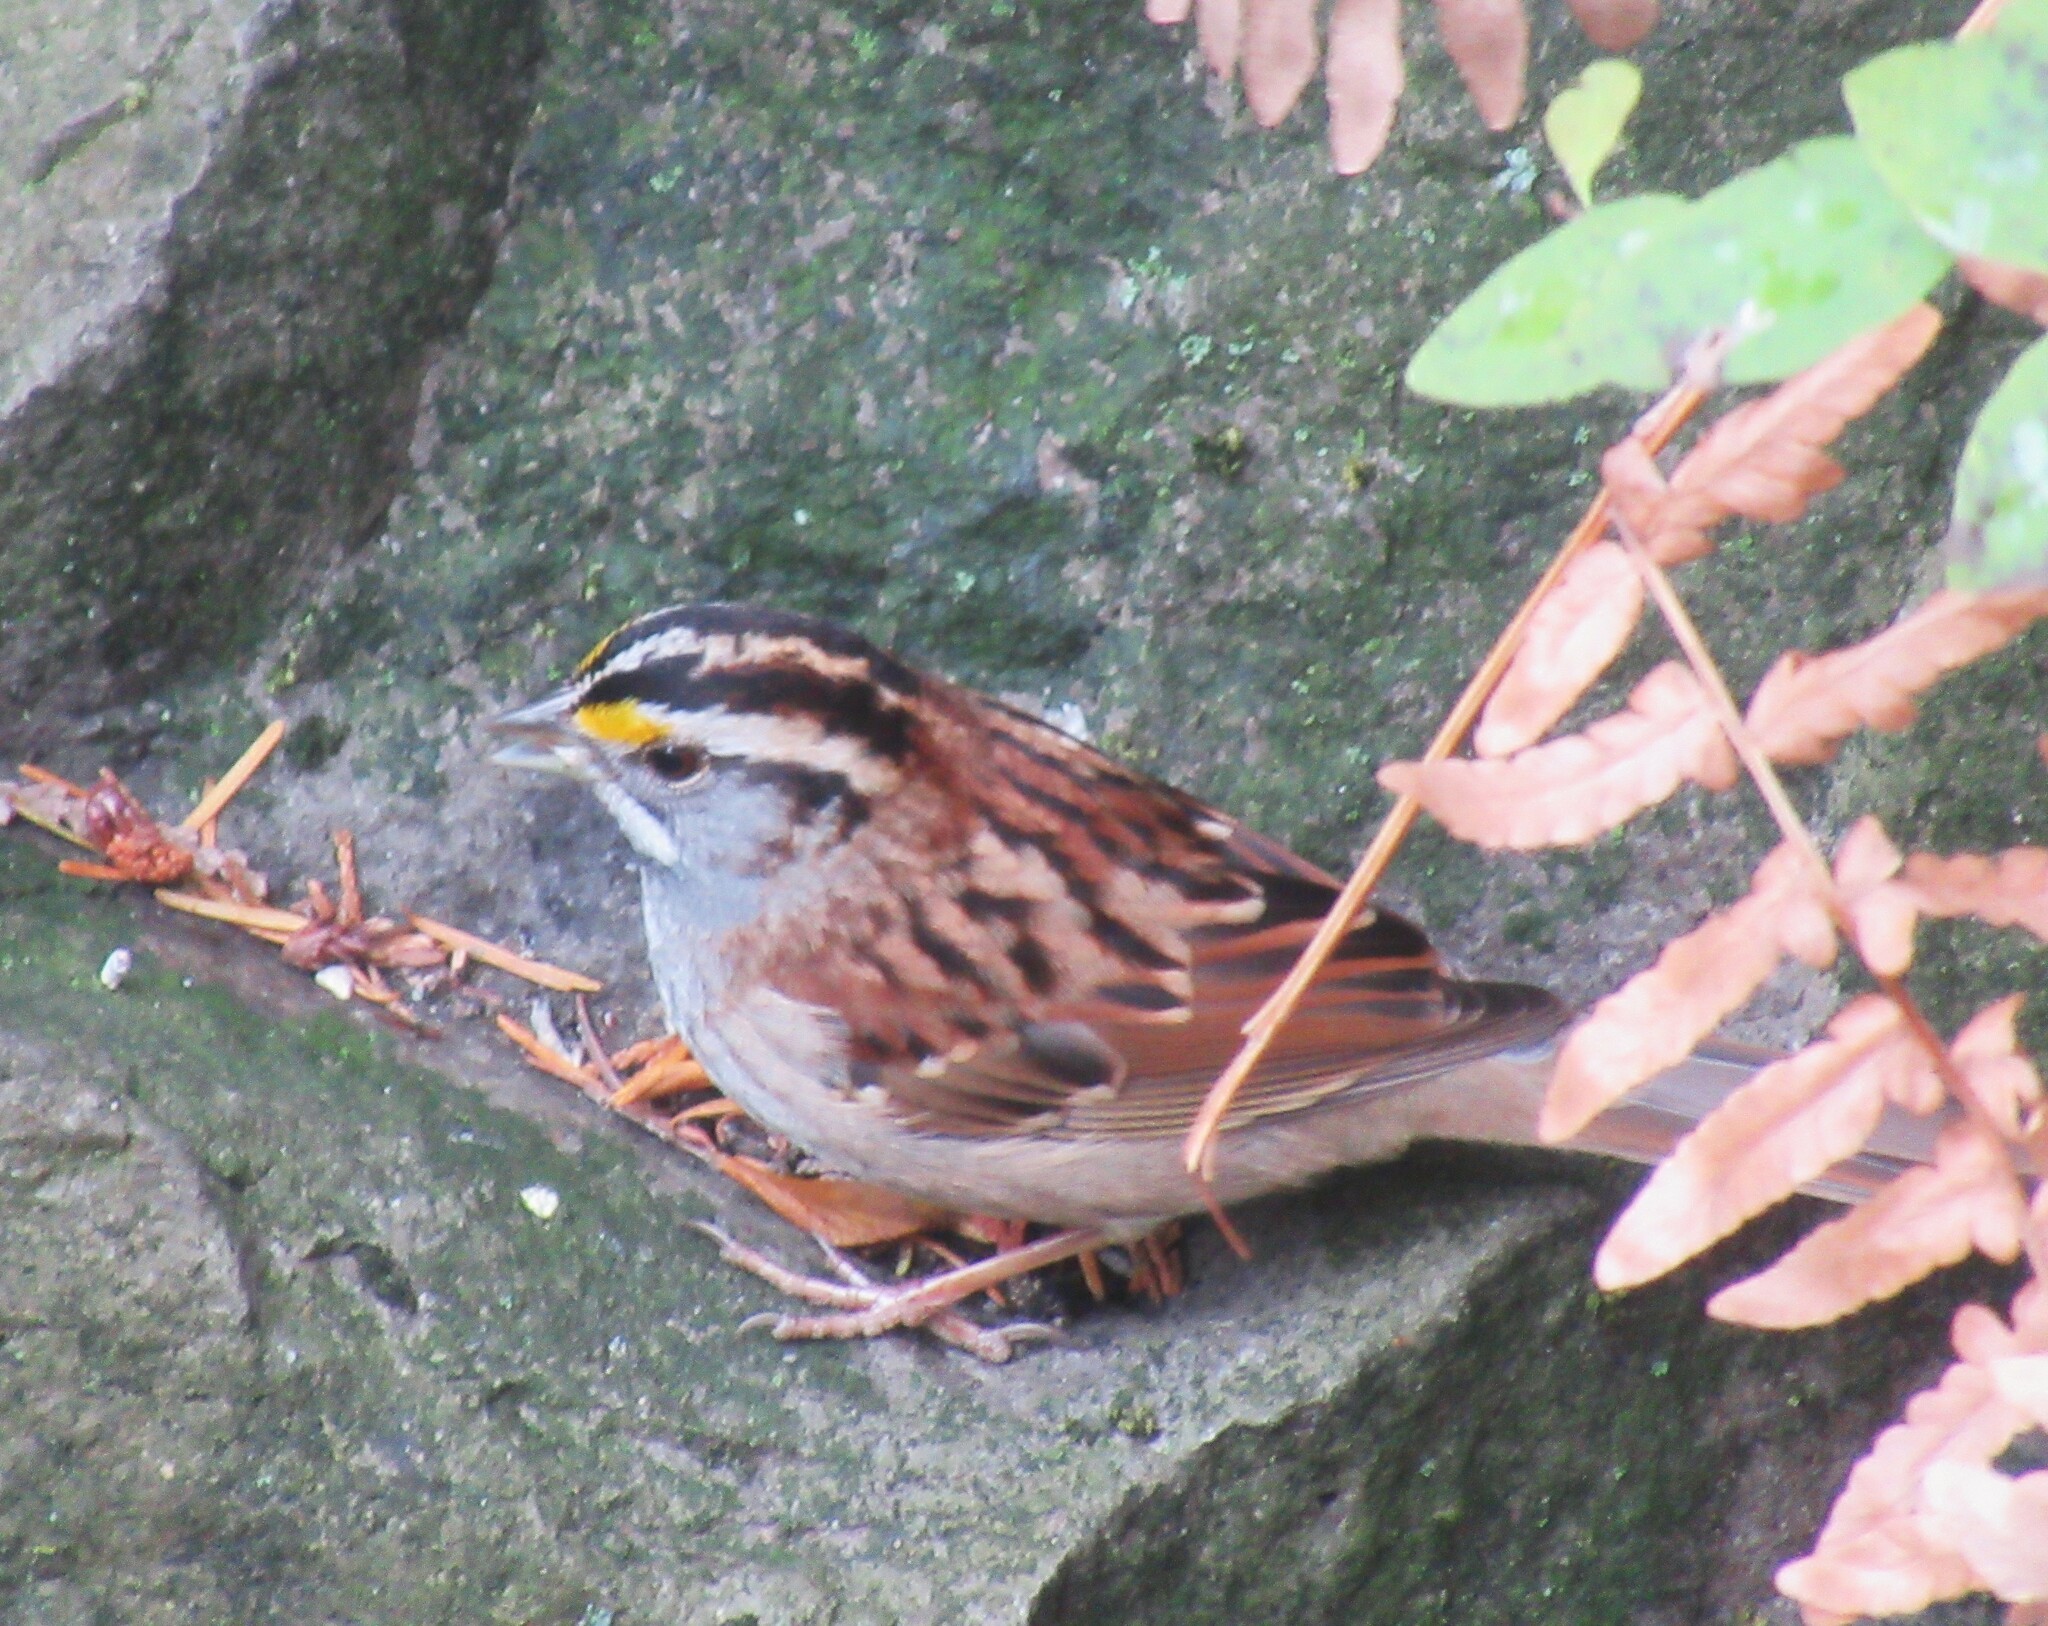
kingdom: Animalia
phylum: Chordata
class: Aves
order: Passeriformes
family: Passerellidae
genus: Zonotrichia
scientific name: Zonotrichia albicollis
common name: White-throated sparrow
